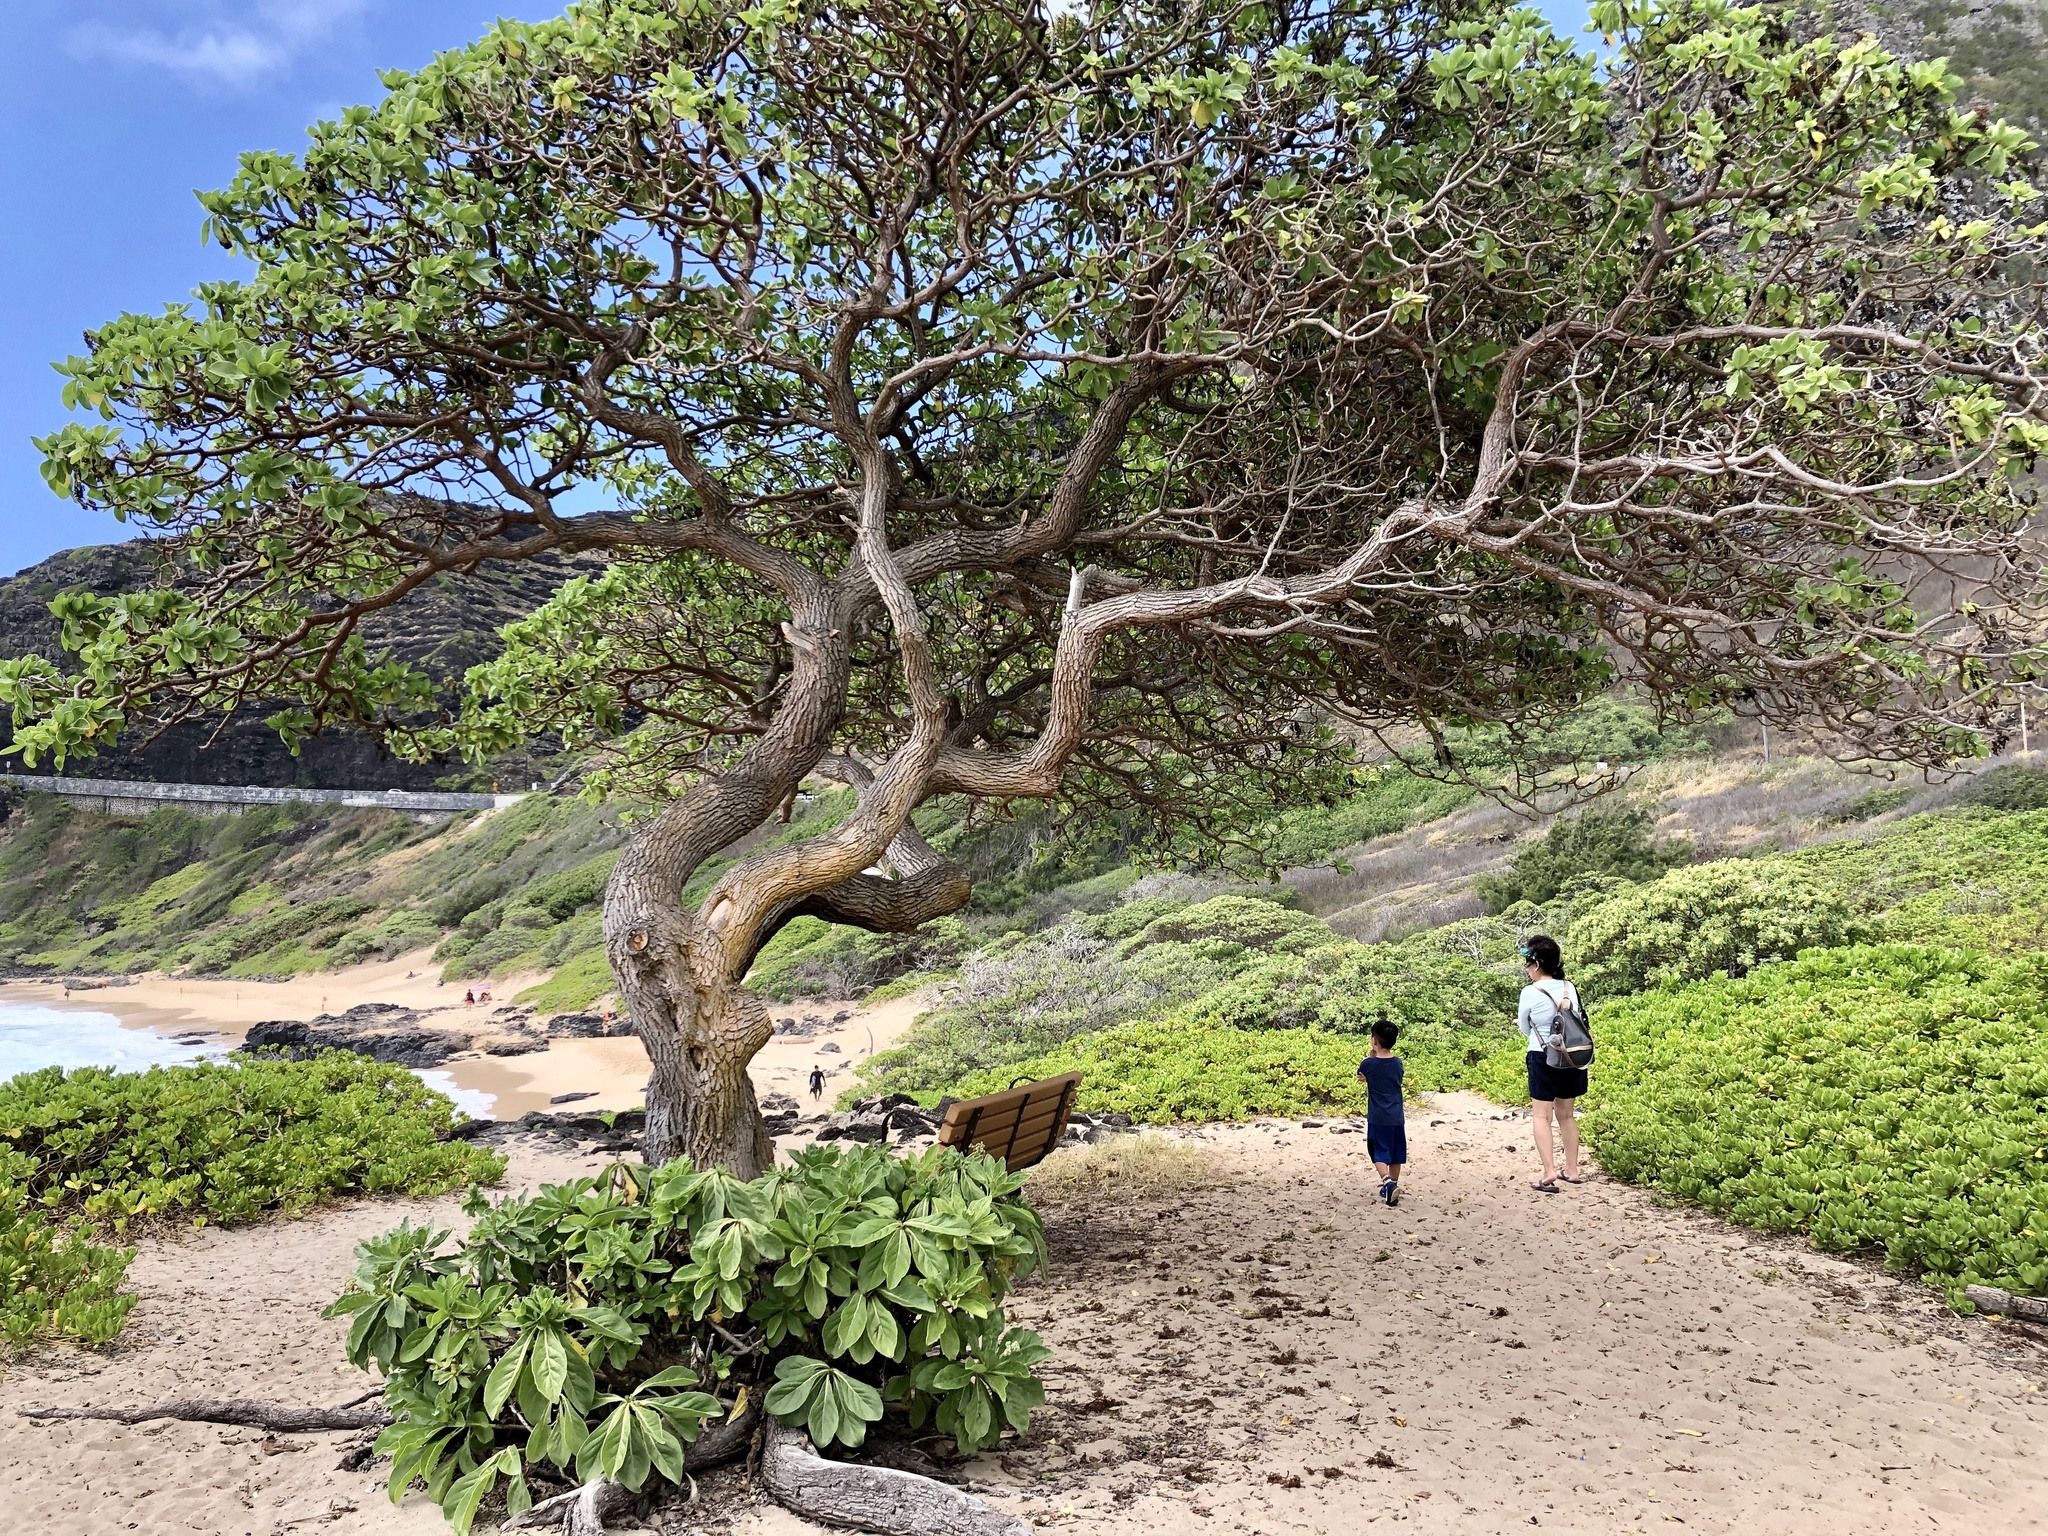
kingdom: Plantae
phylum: Tracheophyta
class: Magnoliopsida
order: Boraginales
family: Heliotropiaceae
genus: Heliotropium
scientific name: Heliotropium velutinum
